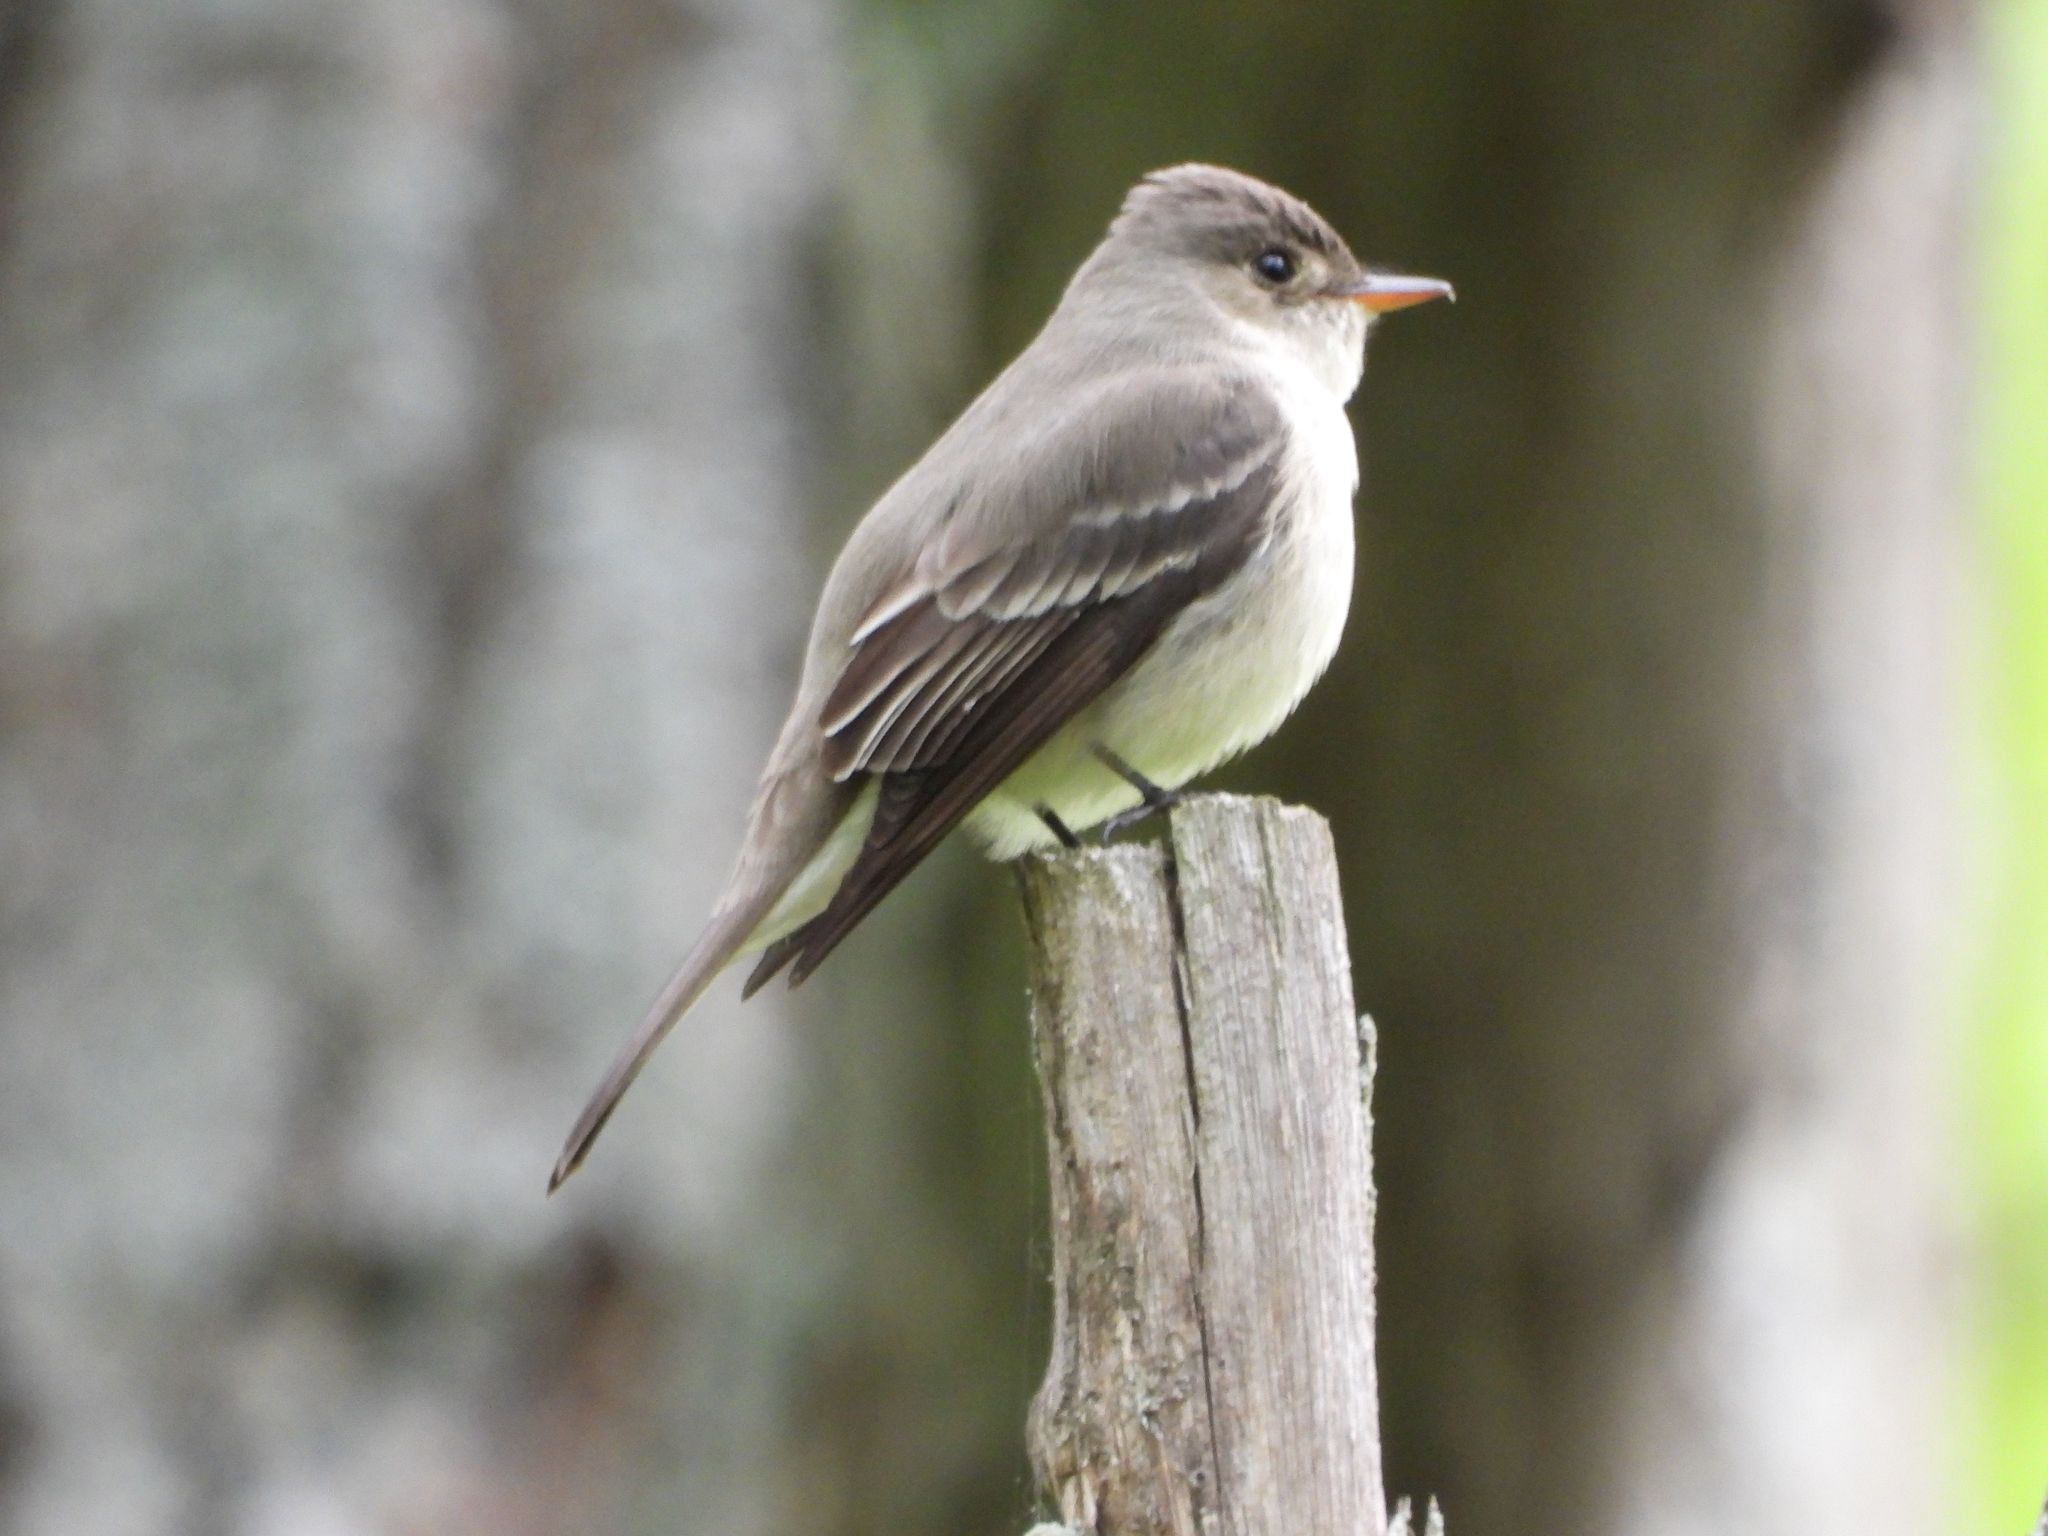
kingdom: Animalia
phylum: Chordata
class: Aves
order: Passeriformes
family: Tyrannidae
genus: Contopus
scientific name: Contopus virens
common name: Eastern wood-pewee
